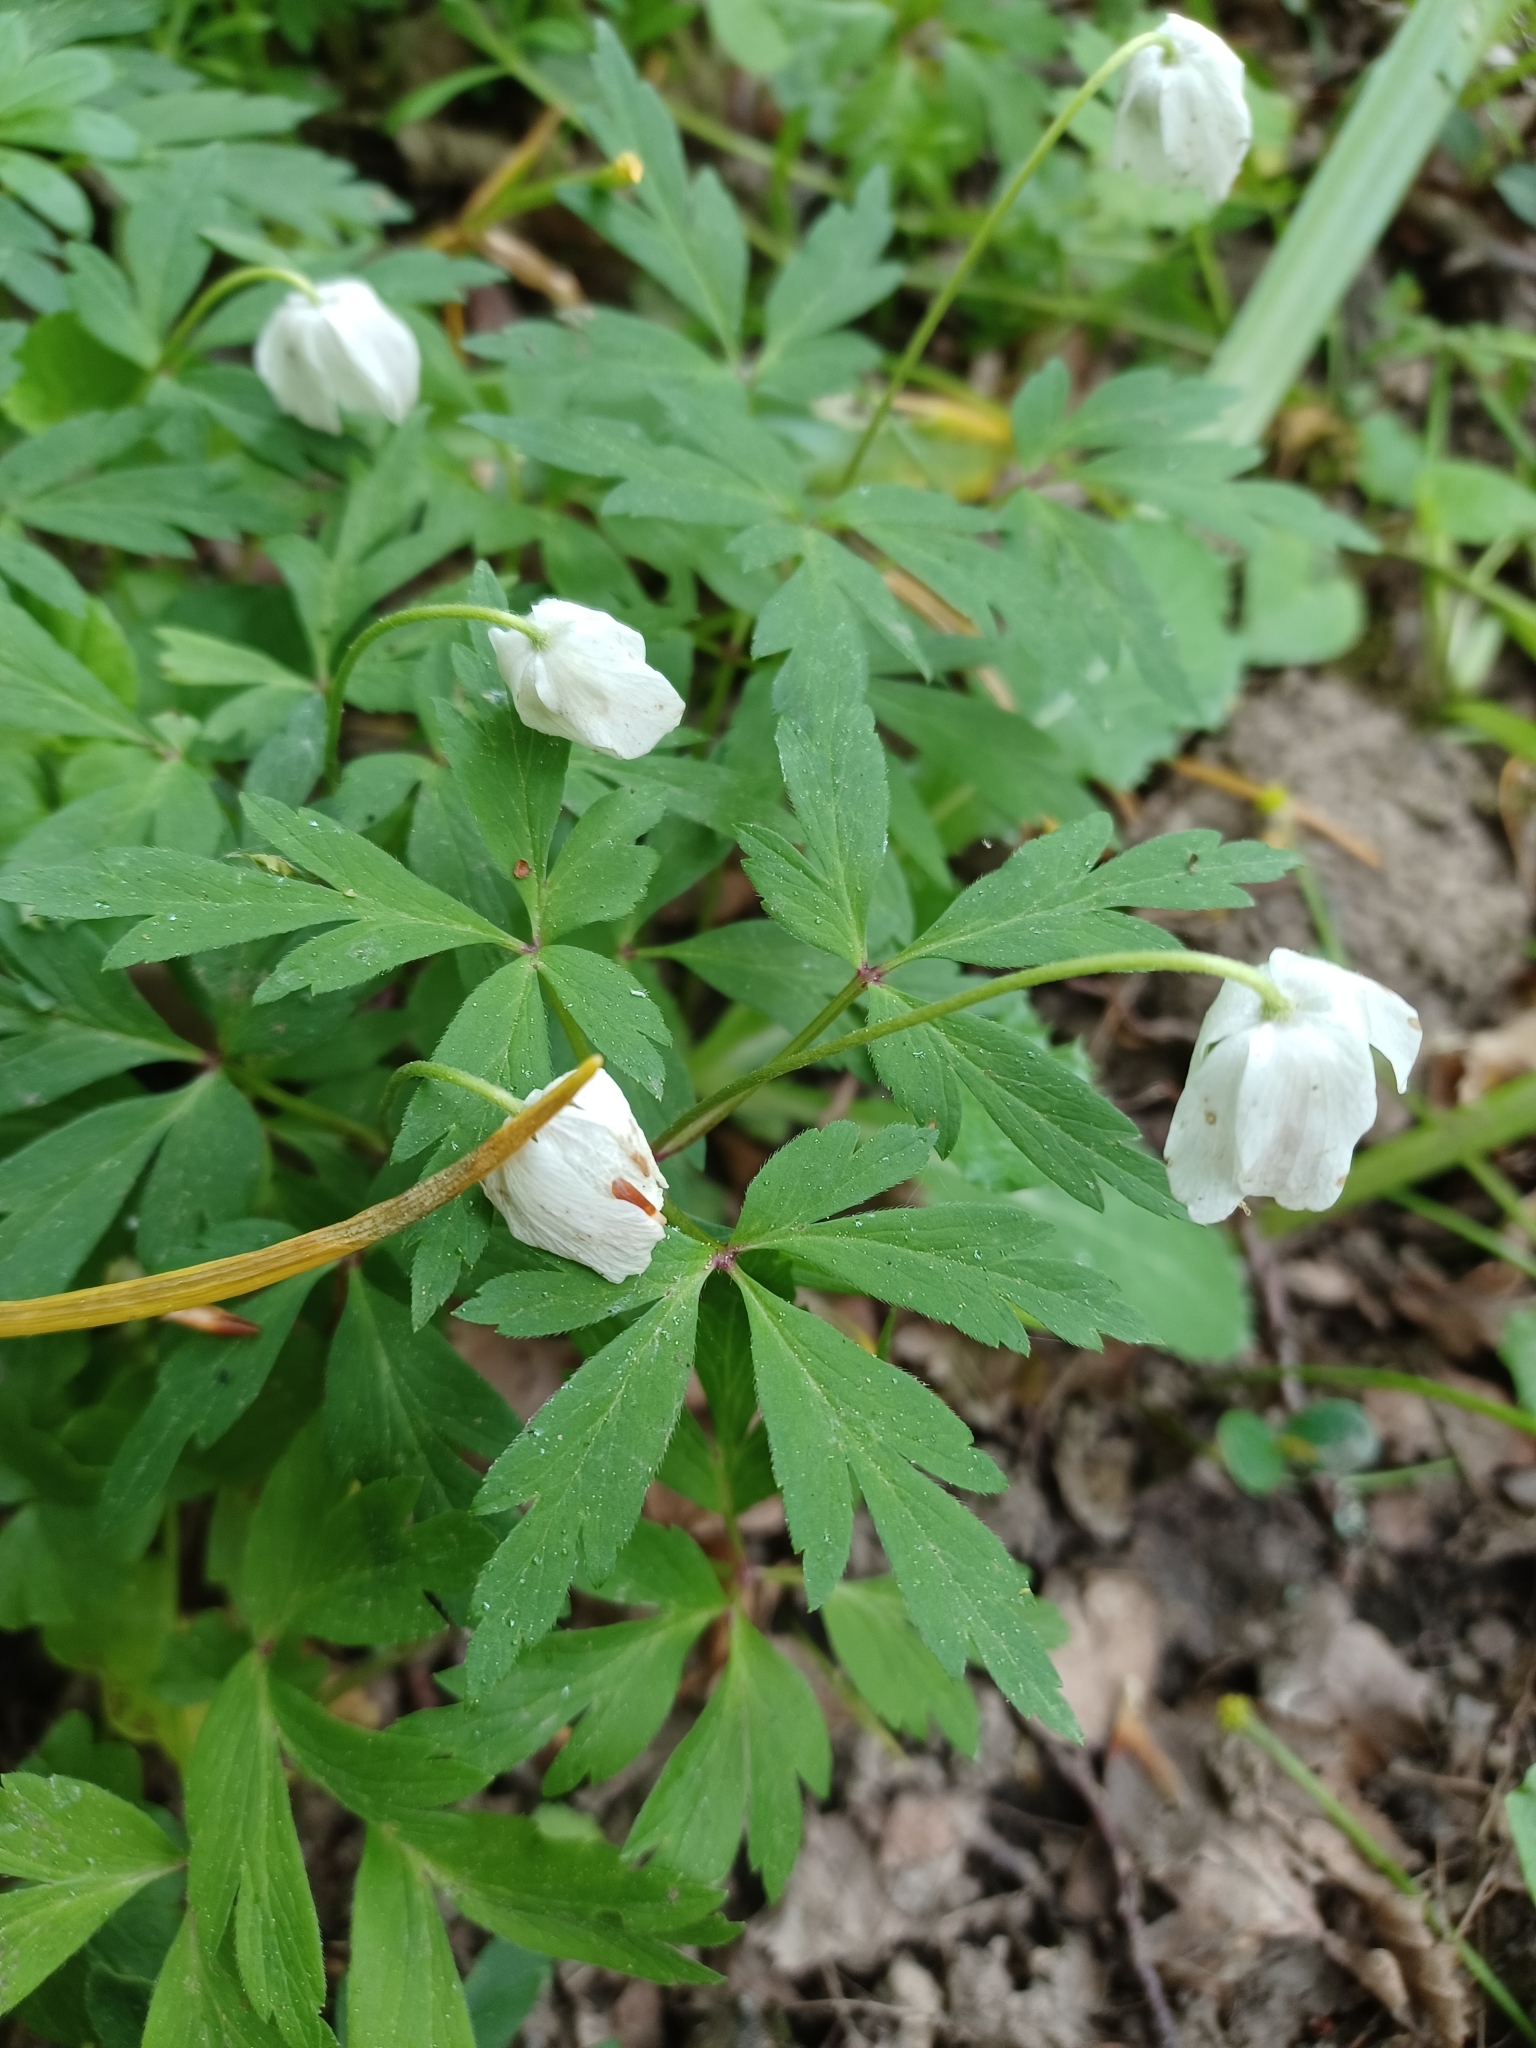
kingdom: Plantae
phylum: Tracheophyta
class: Magnoliopsida
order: Ranunculales
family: Ranunculaceae
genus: Anemone
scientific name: Anemone nemorosa
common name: Wood anemone
